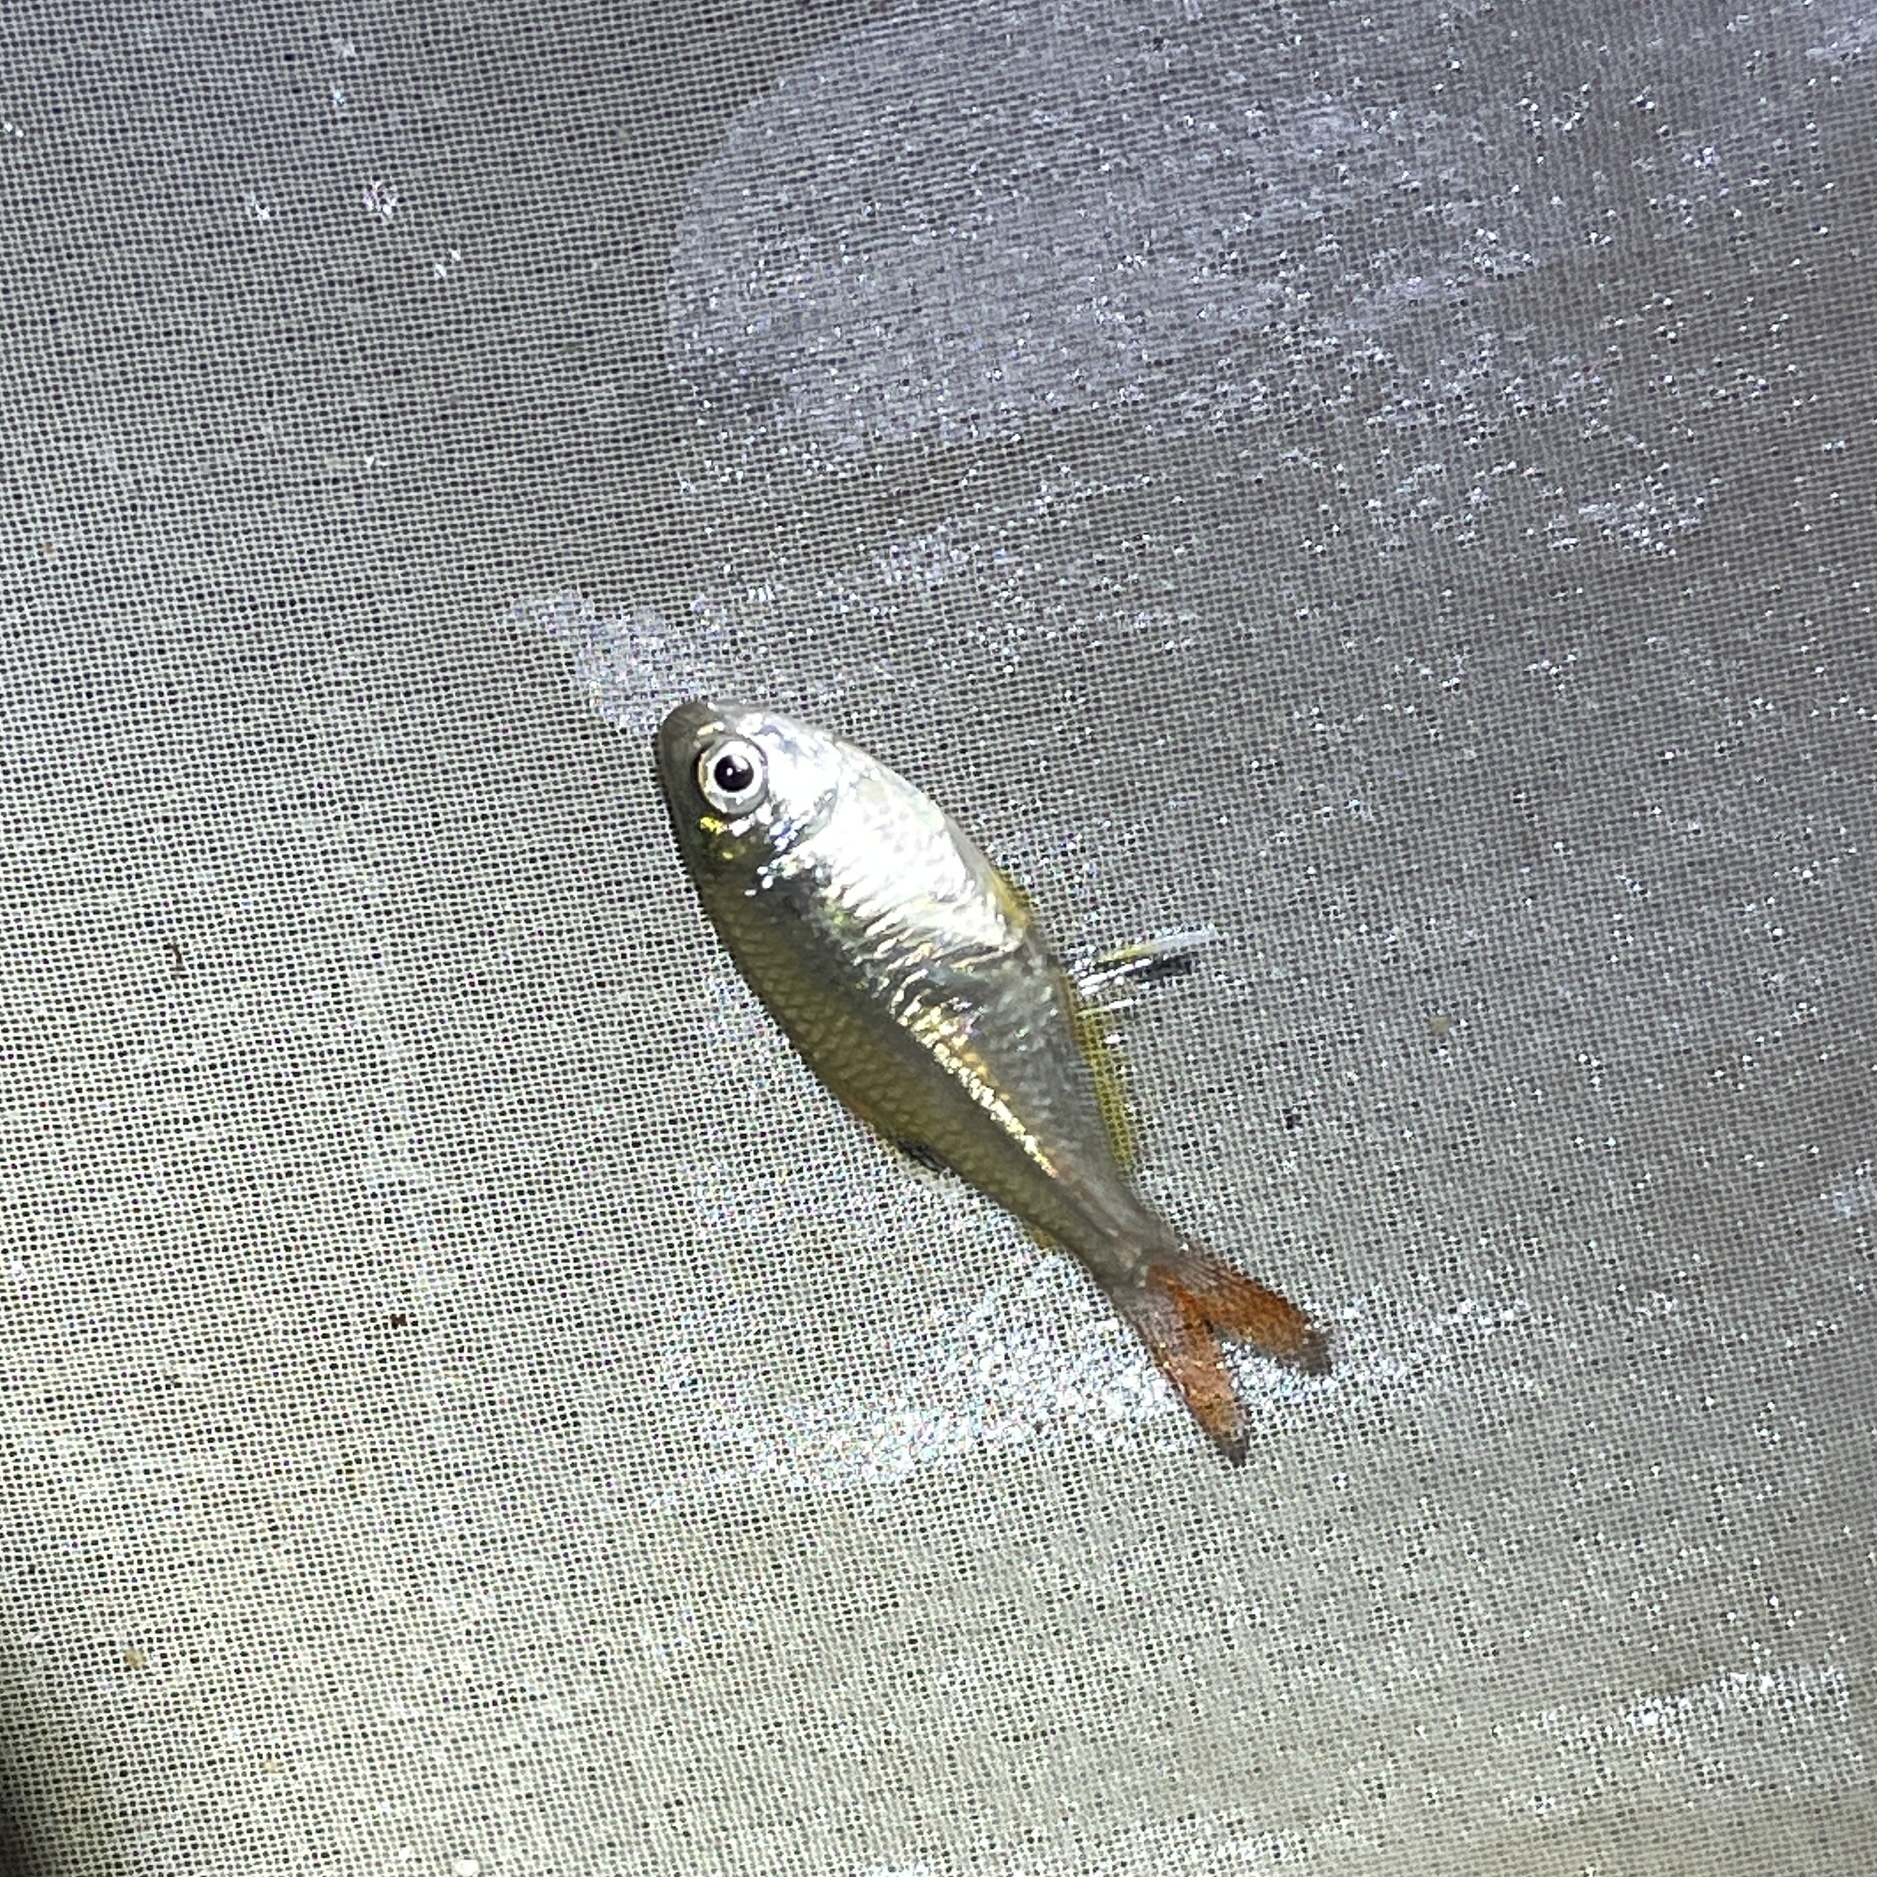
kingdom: Animalia
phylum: Chordata
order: Characiformes
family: Characidae
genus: Hemigrammus
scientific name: Hemigrammus unilineatus
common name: Featherfin tetra
